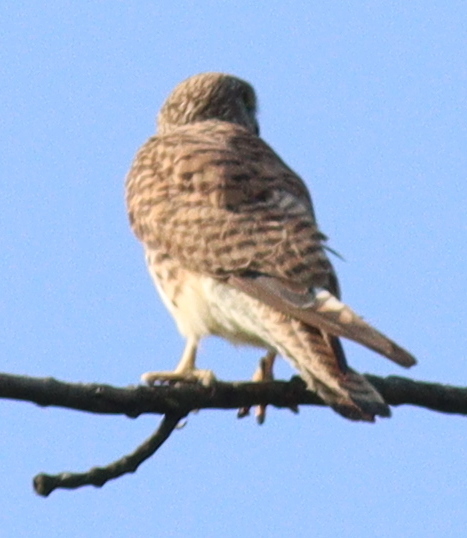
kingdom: Animalia
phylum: Chordata
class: Aves
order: Falconiformes
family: Falconidae
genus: Falco
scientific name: Falco tinnunculus
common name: Common kestrel
